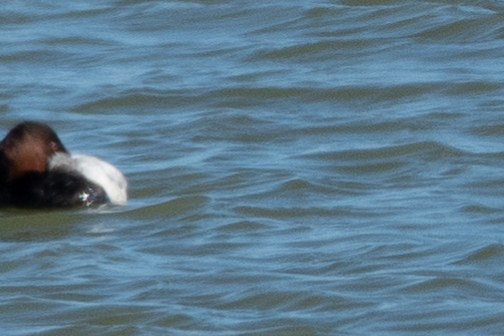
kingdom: Animalia
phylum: Chordata
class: Aves
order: Anseriformes
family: Anatidae
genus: Aythya
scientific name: Aythya valisineria
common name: Canvasback
